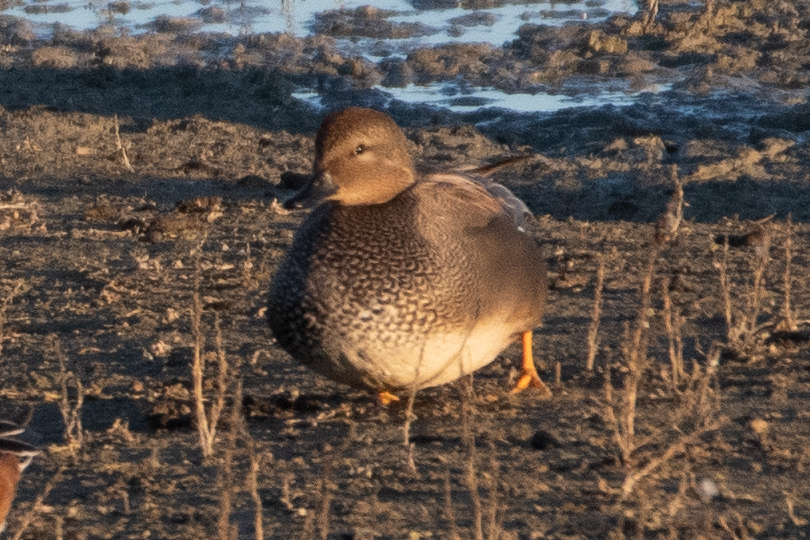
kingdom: Animalia
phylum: Chordata
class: Aves
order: Anseriformes
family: Anatidae
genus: Mareca
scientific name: Mareca strepera
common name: Gadwall
